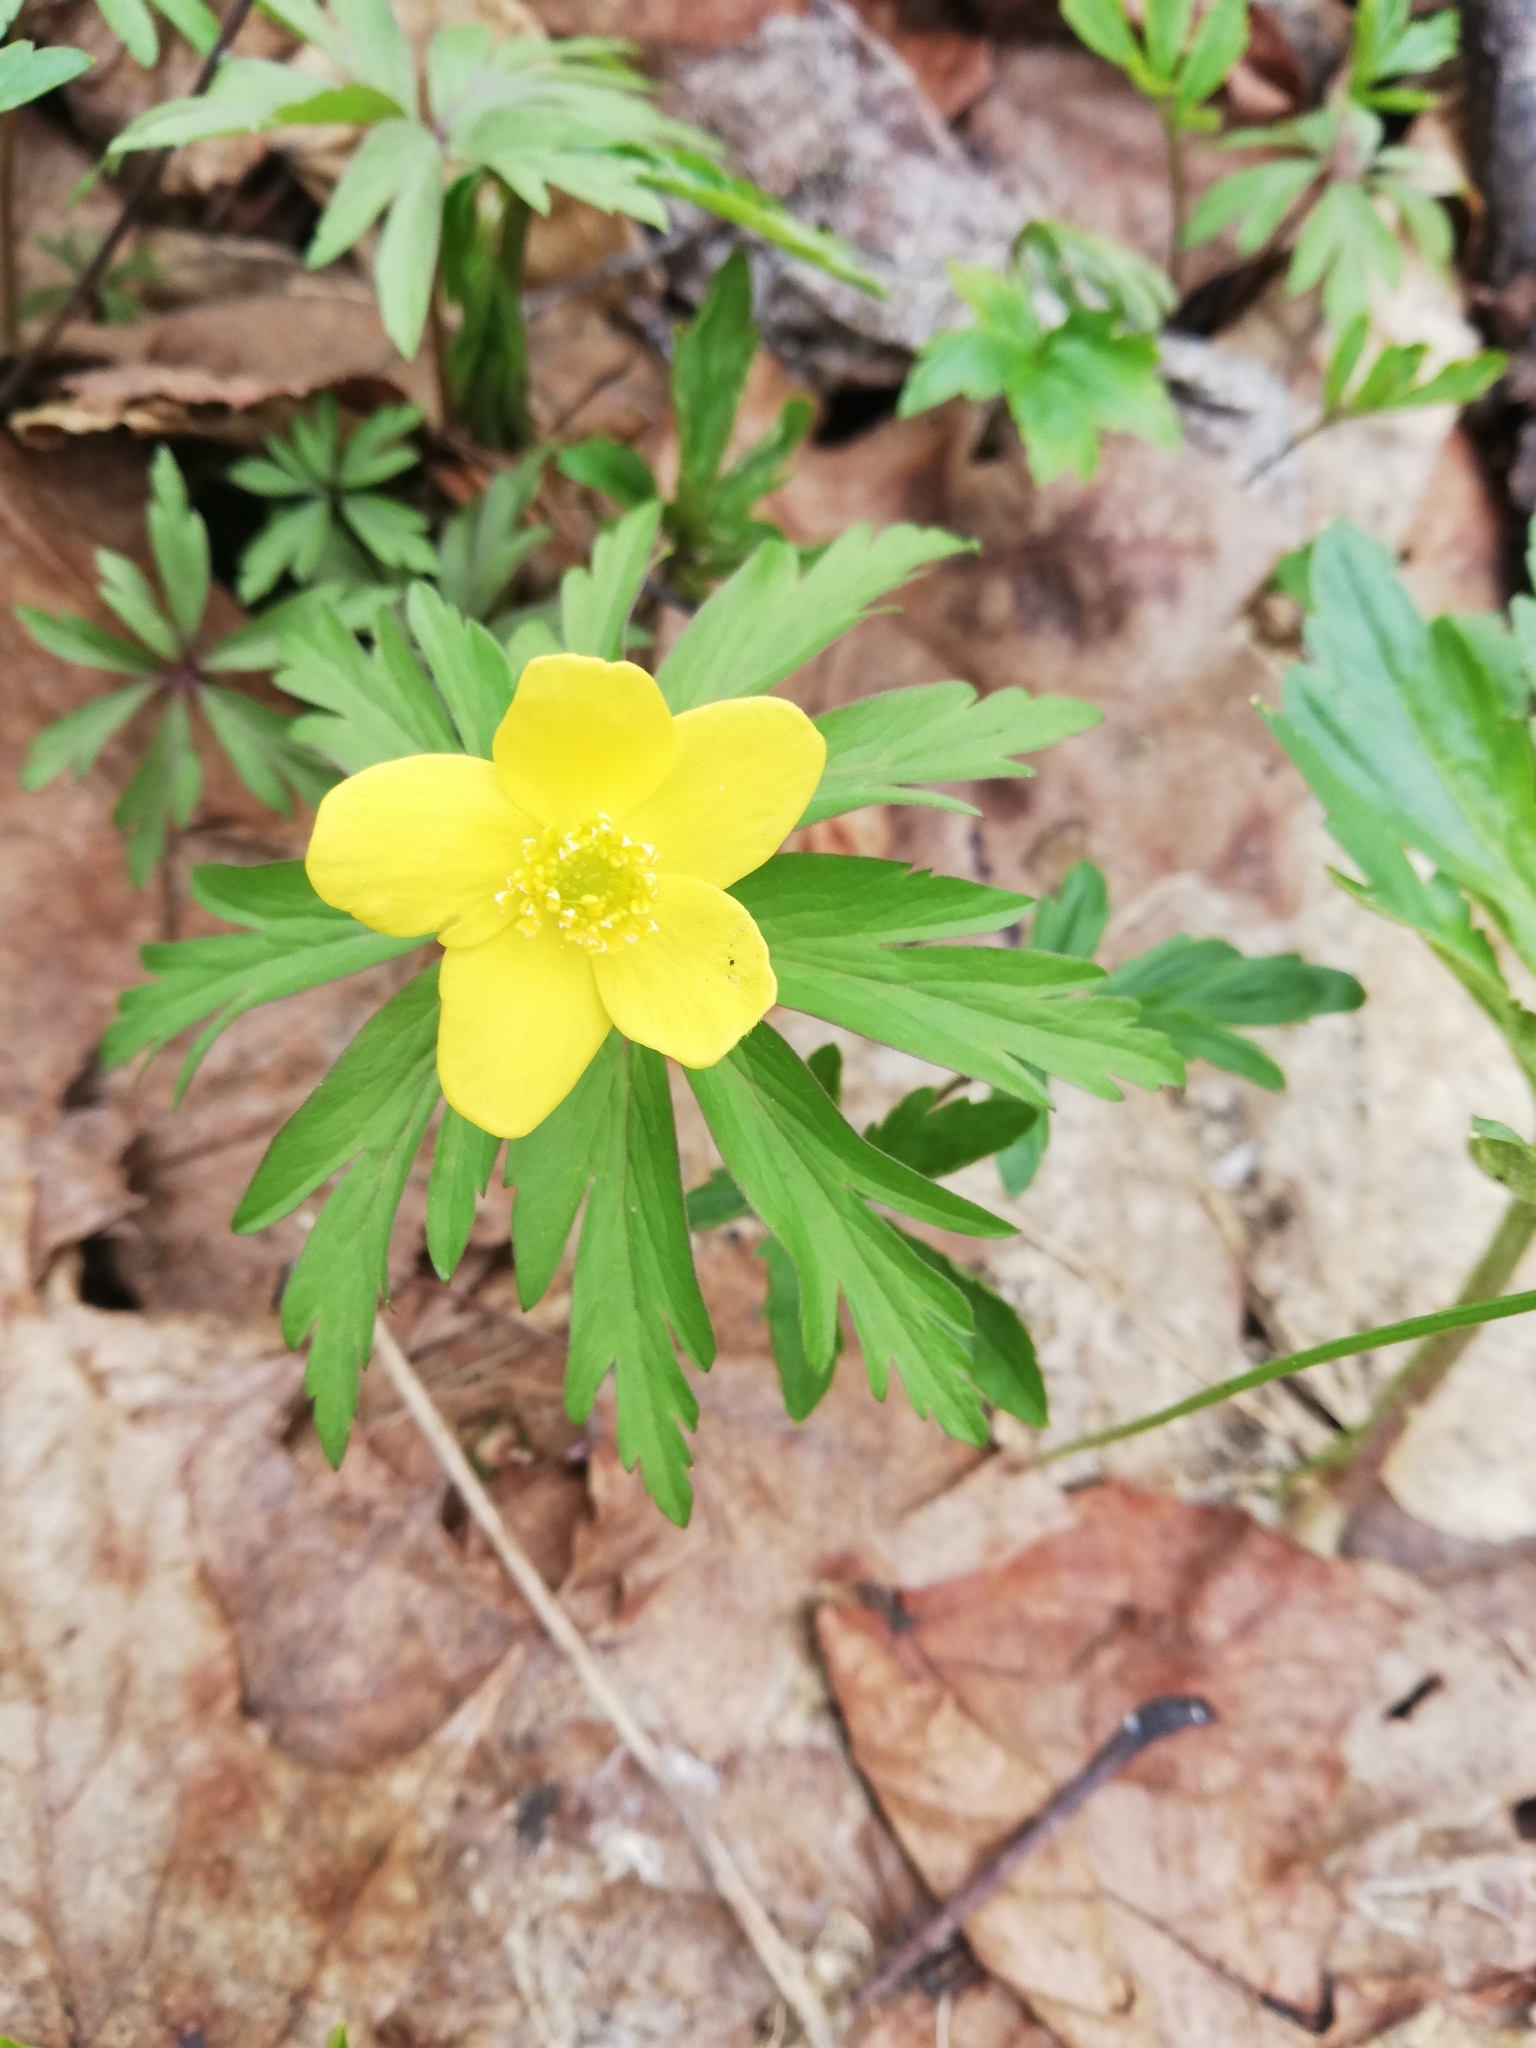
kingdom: Plantae
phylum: Tracheophyta
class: Magnoliopsida
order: Ranunculales
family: Ranunculaceae
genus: Anemone
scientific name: Anemone ranunculoides
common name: Yellow anemone
